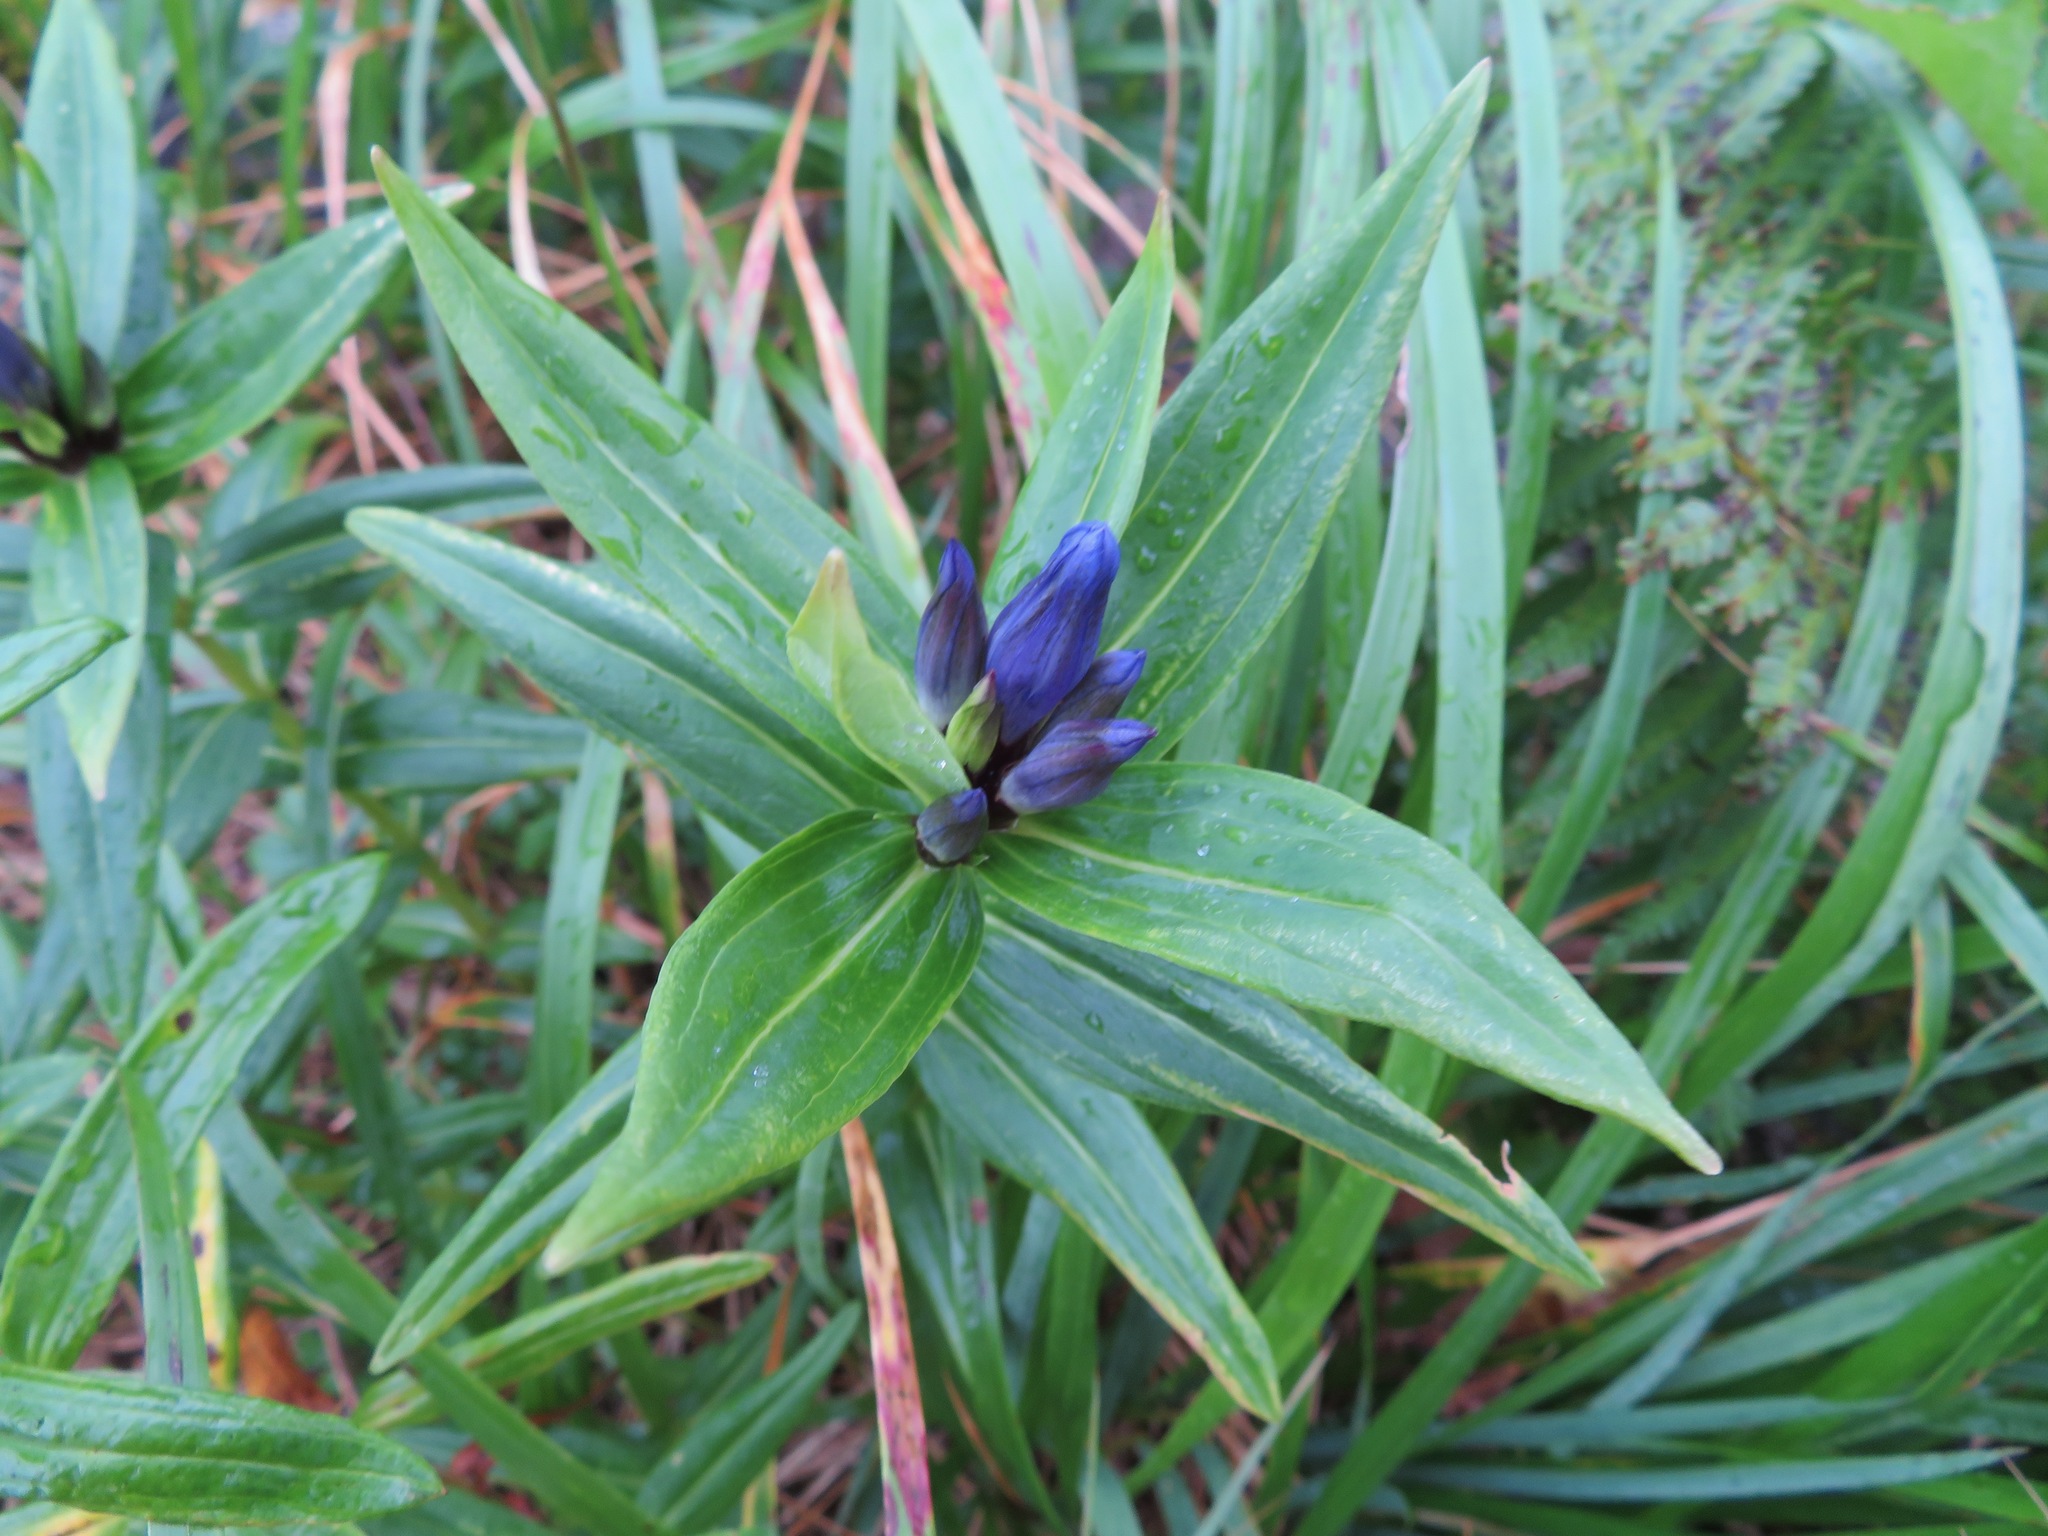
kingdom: Plantae
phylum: Tracheophyta
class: Magnoliopsida
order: Gentianales
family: Gentianaceae
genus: Gentiana
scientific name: Gentiana makinoi
